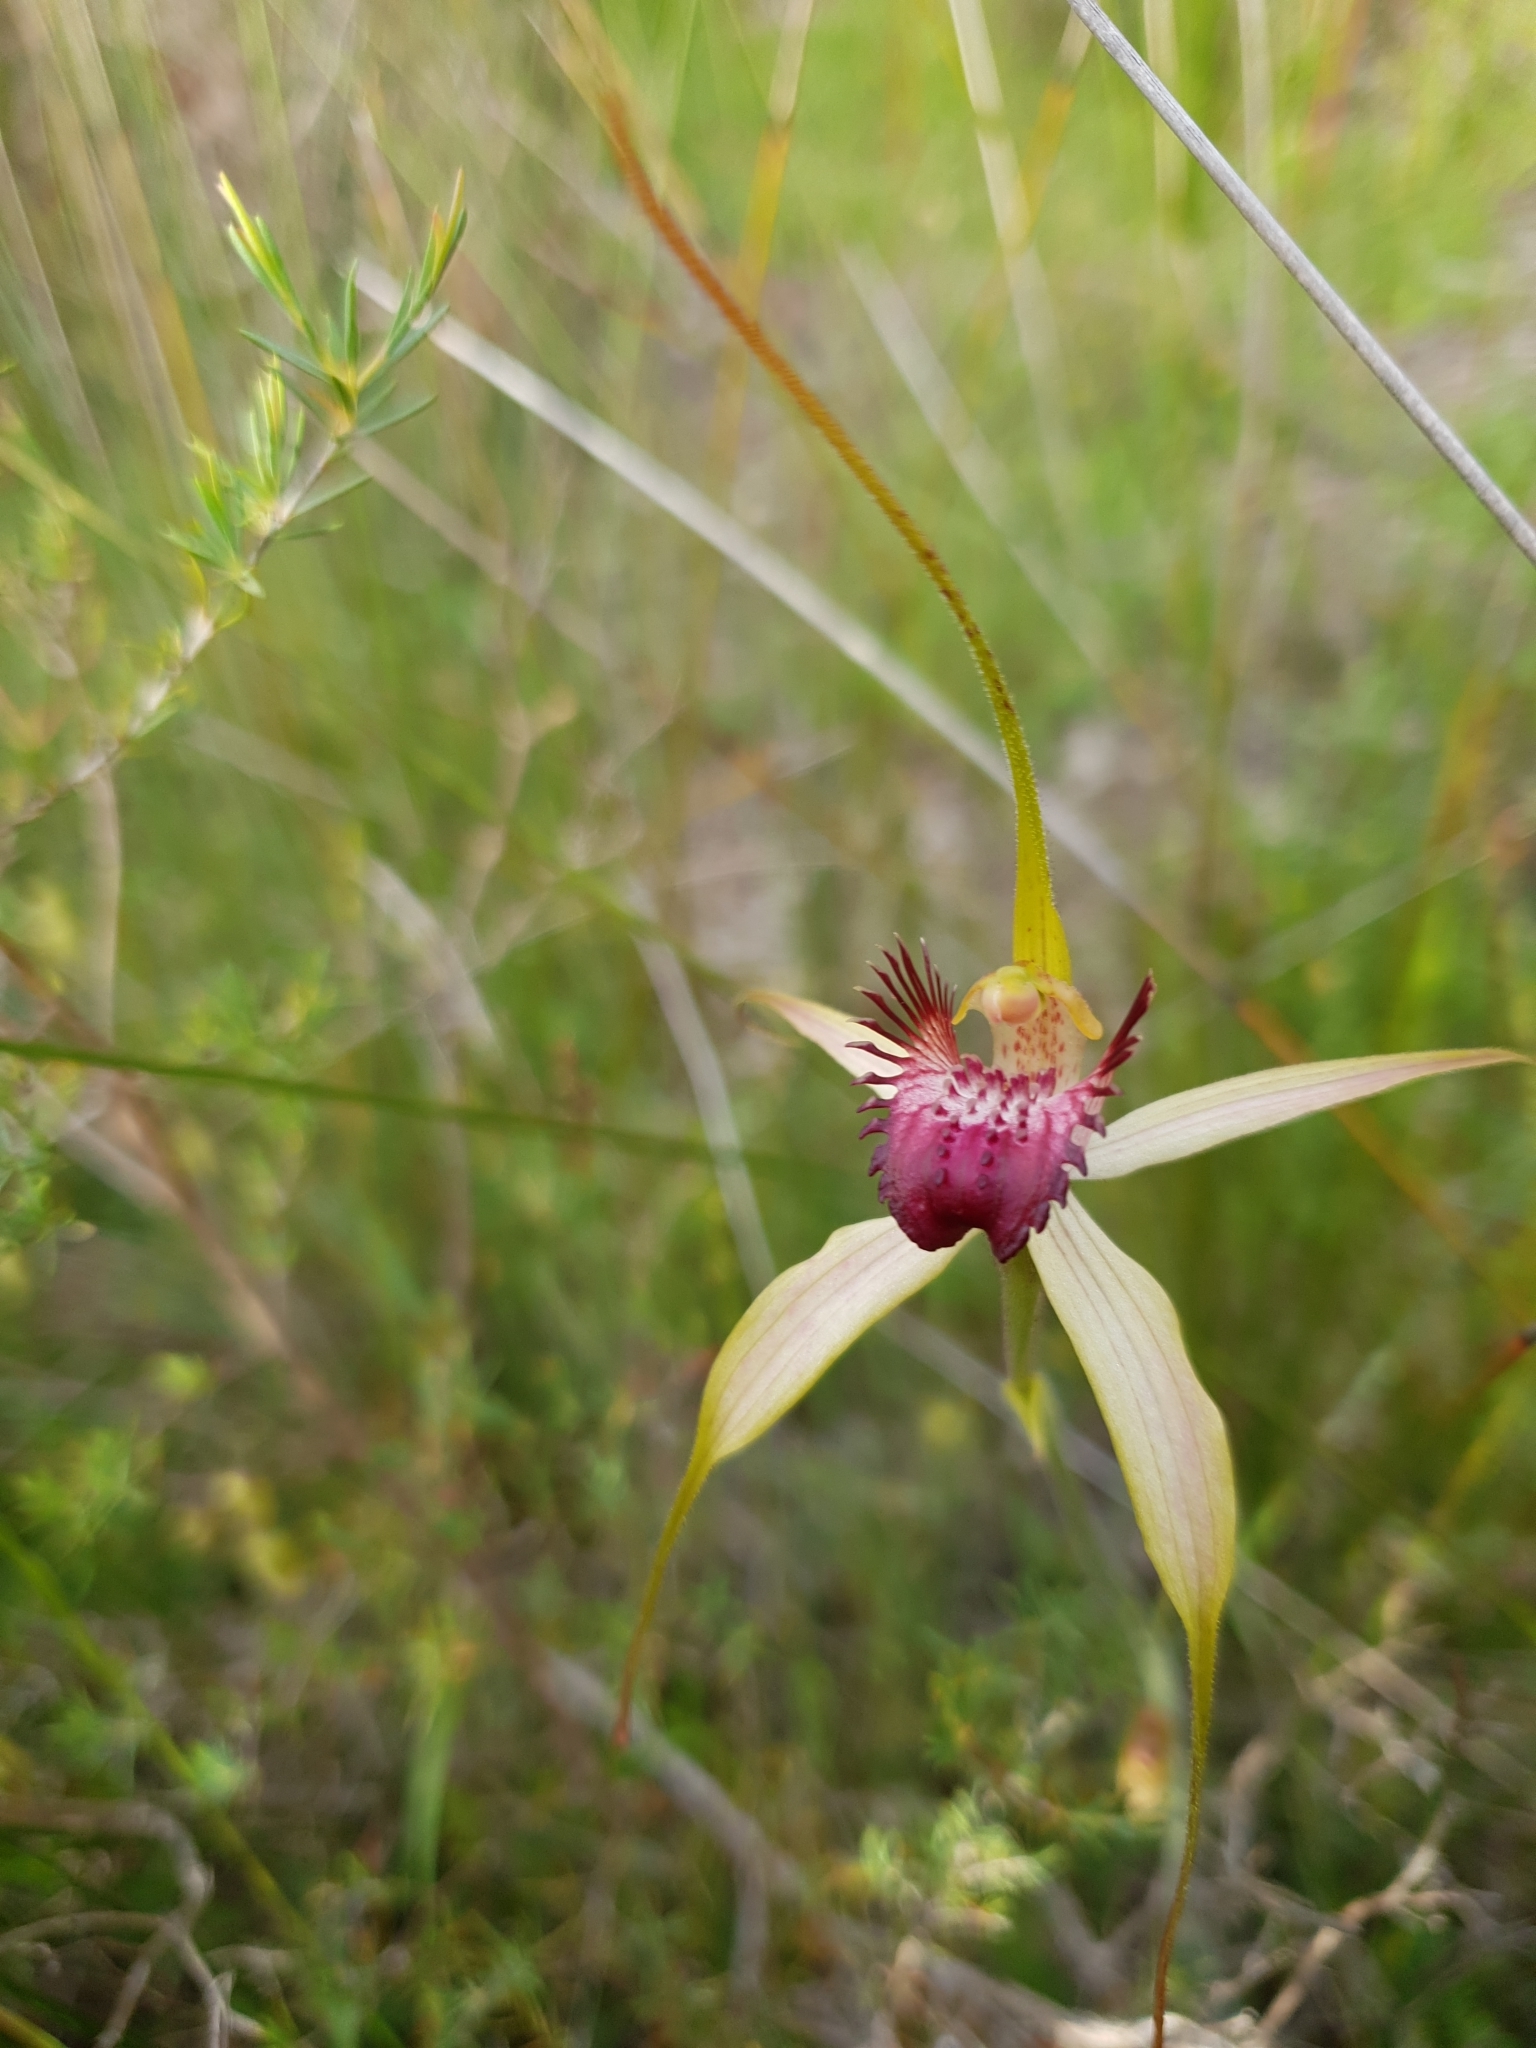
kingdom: Plantae
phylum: Tracheophyta
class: Liliopsida
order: Asparagales
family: Orchidaceae
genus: Caladenia
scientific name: Caladenia paludosa
